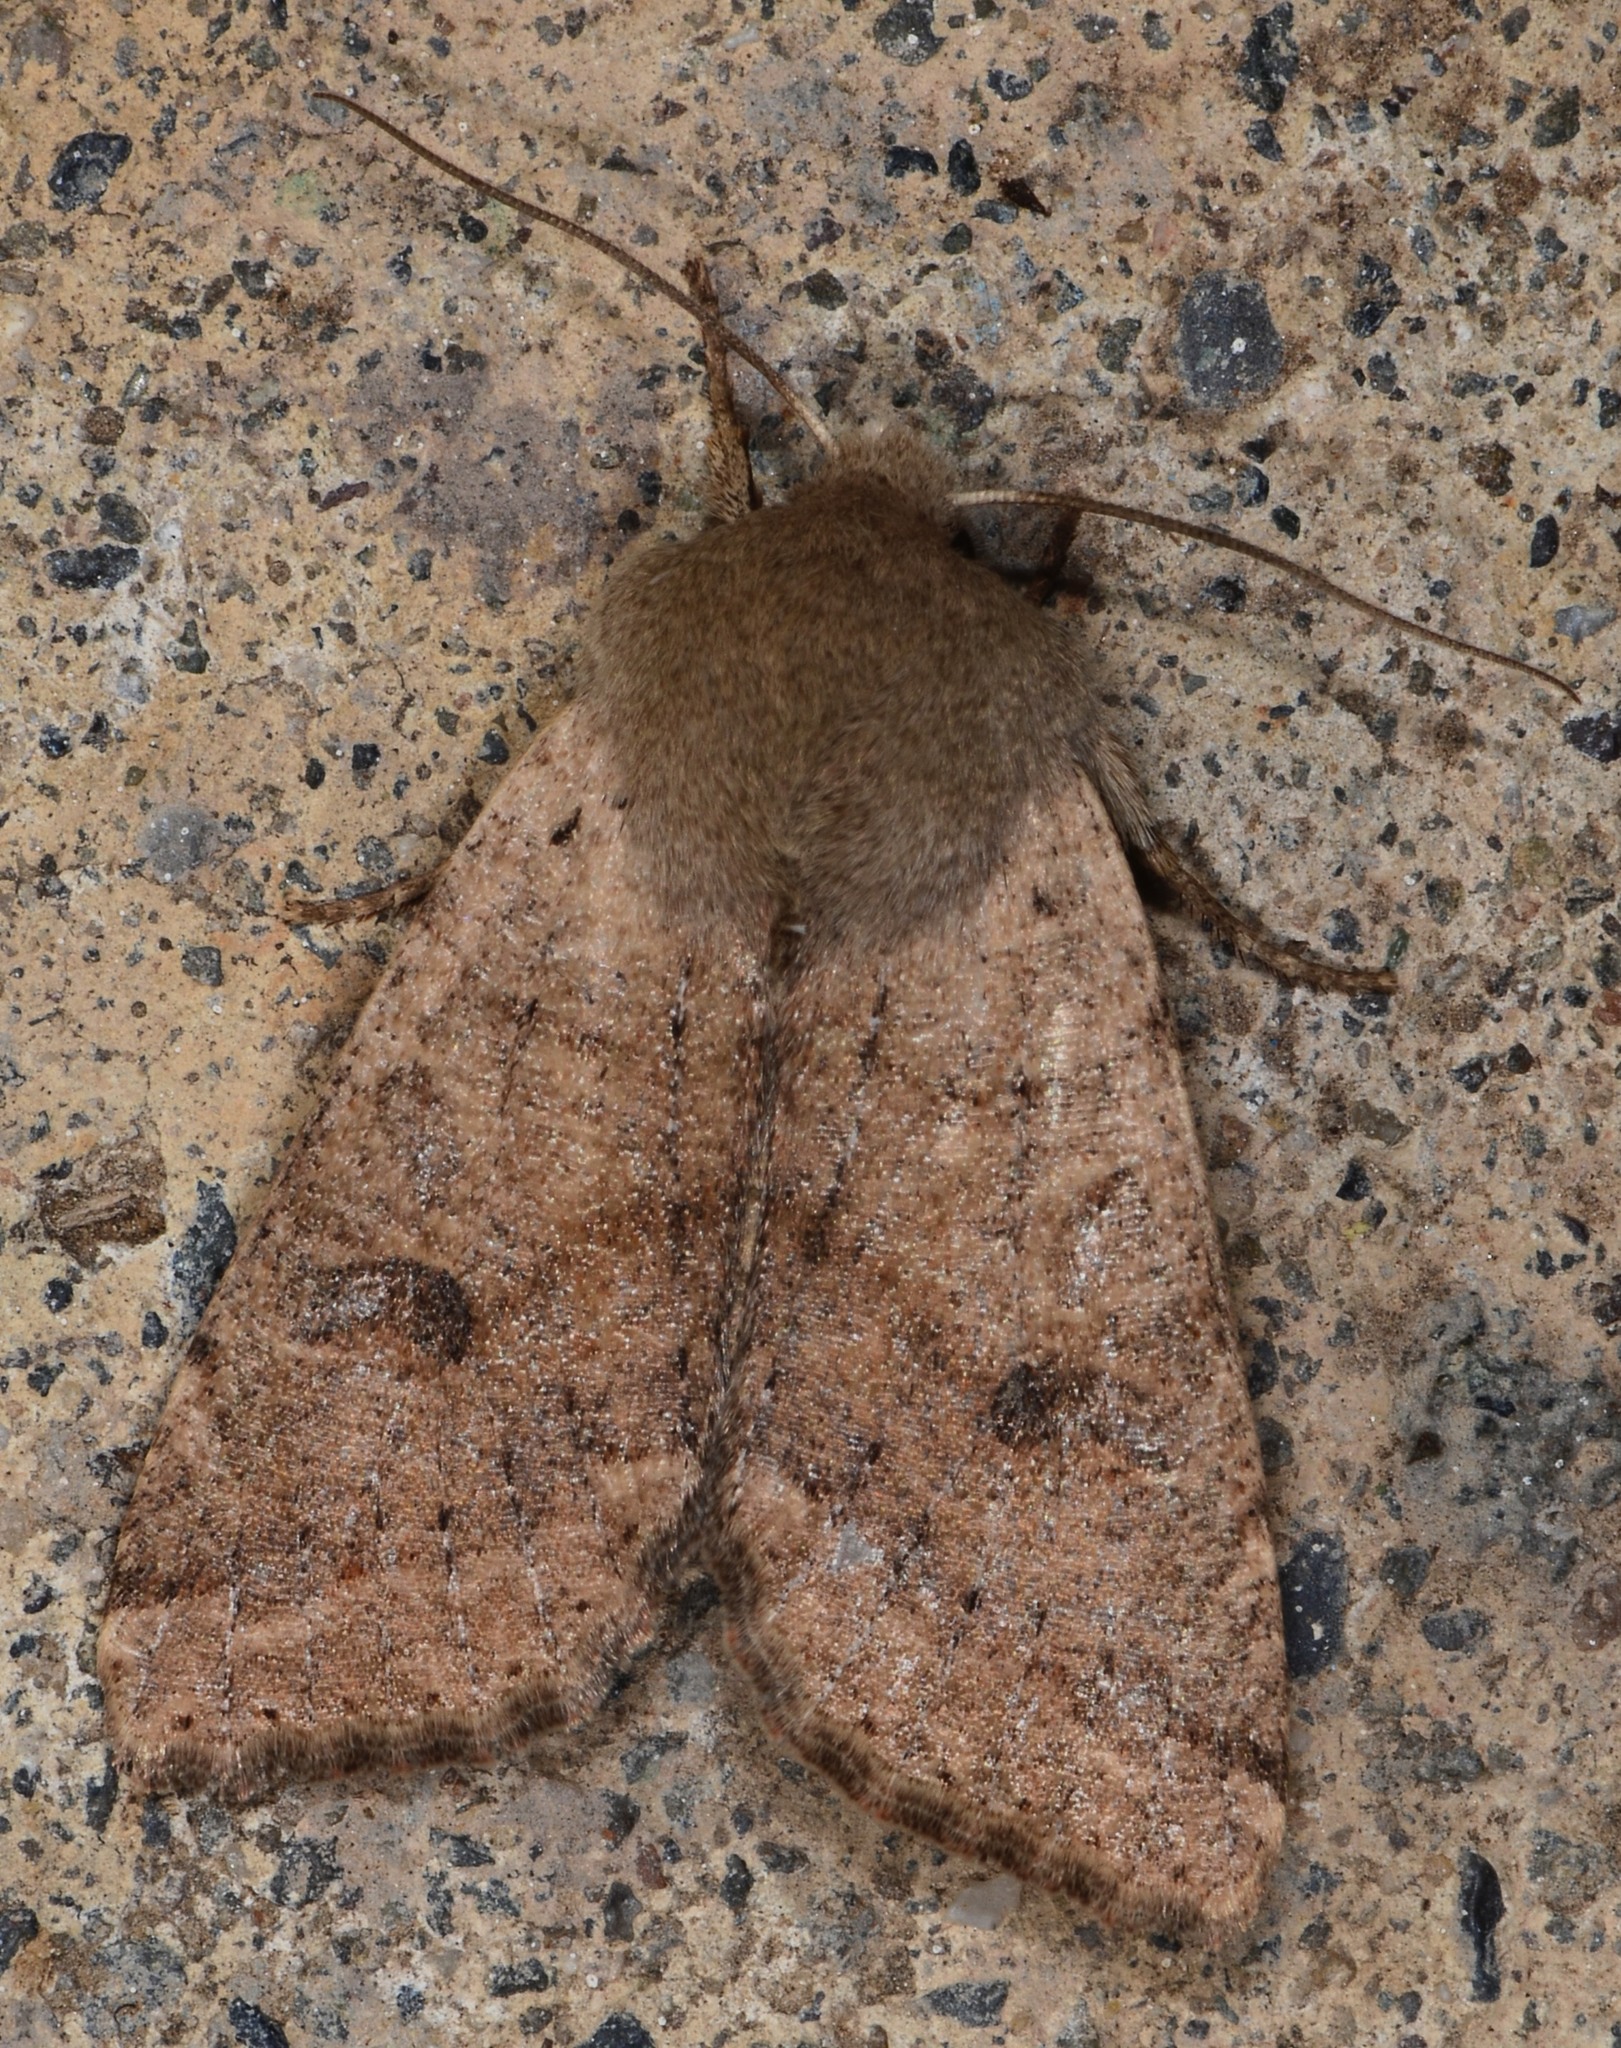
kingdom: Animalia
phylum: Arthropoda
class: Insecta
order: Lepidoptera
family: Noctuidae
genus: Orthosia
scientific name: Orthosia pacifica
